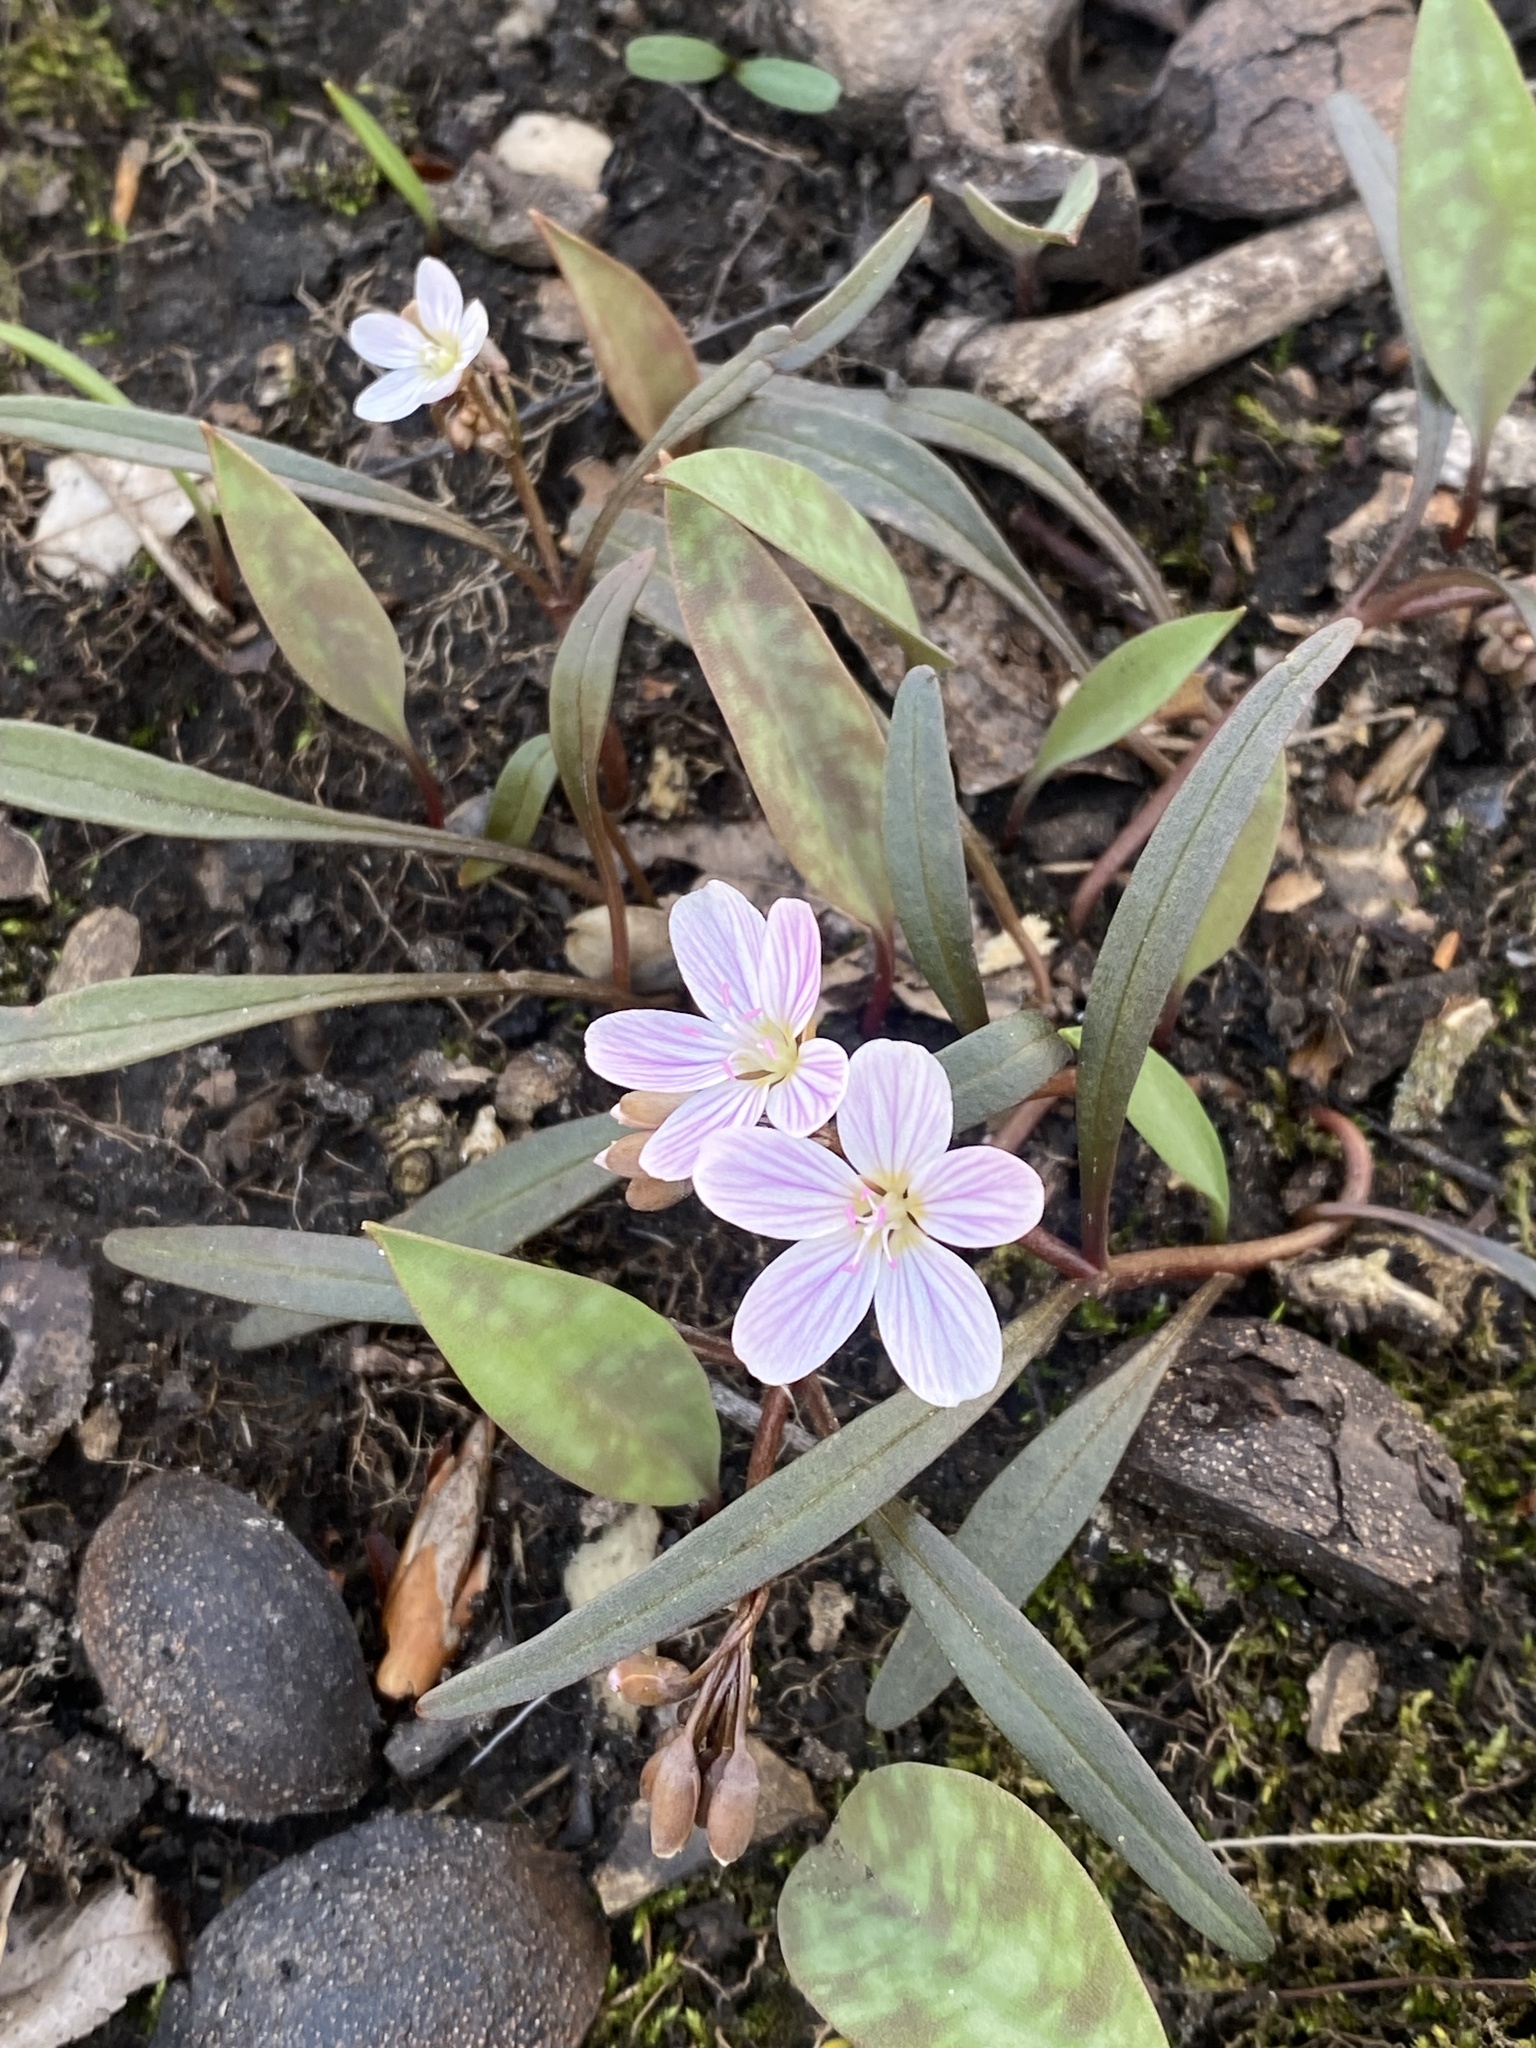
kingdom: Plantae
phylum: Tracheophyta
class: Magnoliopsida
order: Caryophyllales
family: Montiaceae
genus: Claytonia
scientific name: Claytonia virginica
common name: Virginia springbeauty
